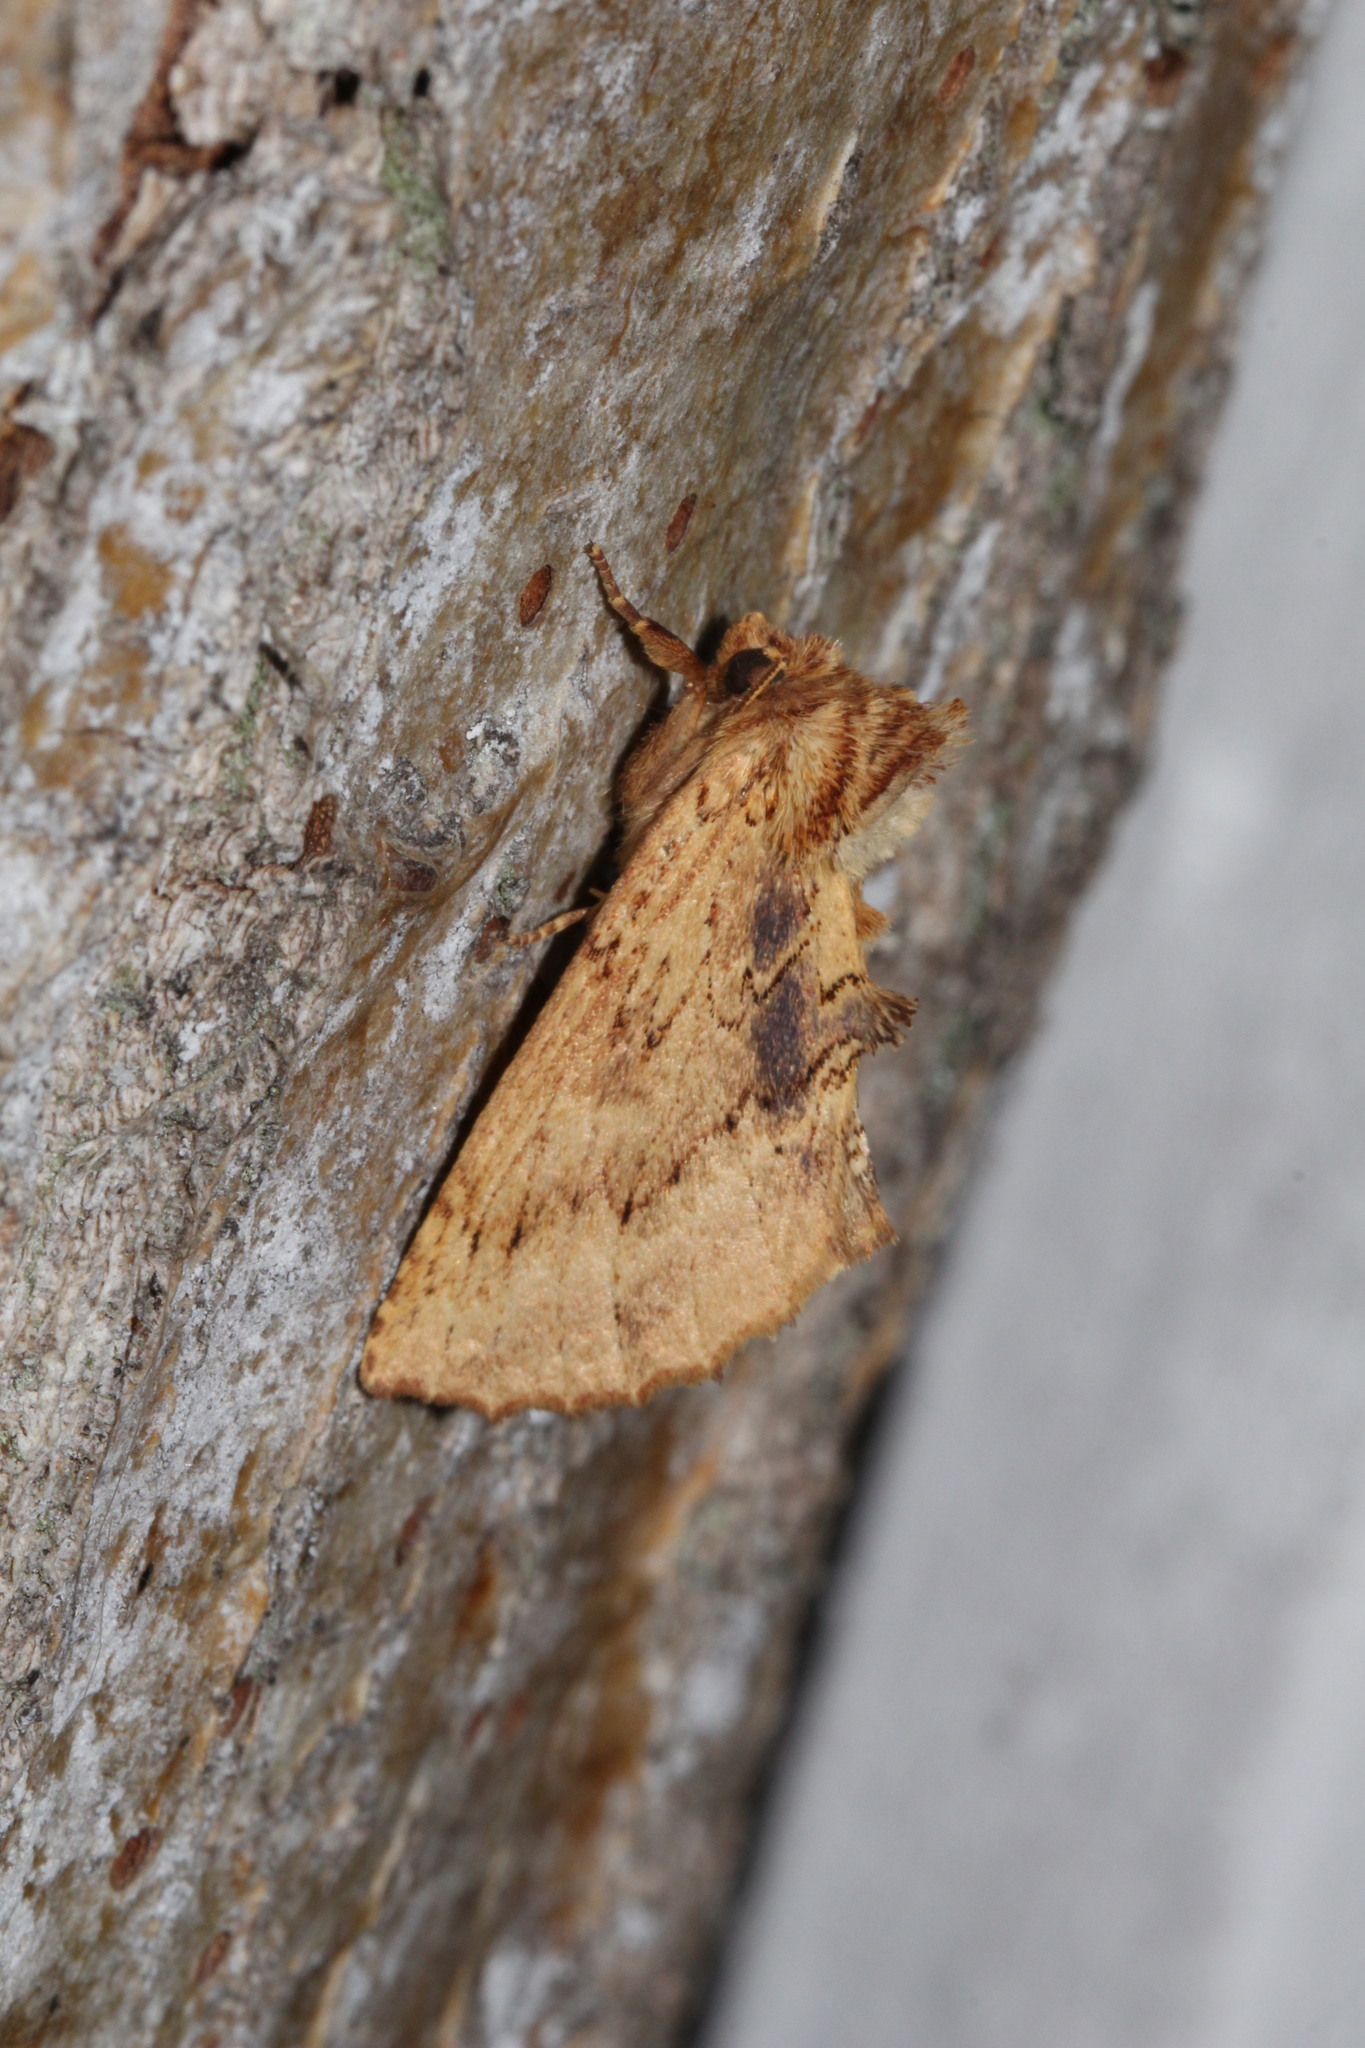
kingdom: Animalia
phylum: Arthropoda
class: Insecta
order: Lepidoptera
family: Notodontidae
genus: Ptilodon
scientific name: Ptilodon capucina
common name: Coxcomb prominent
